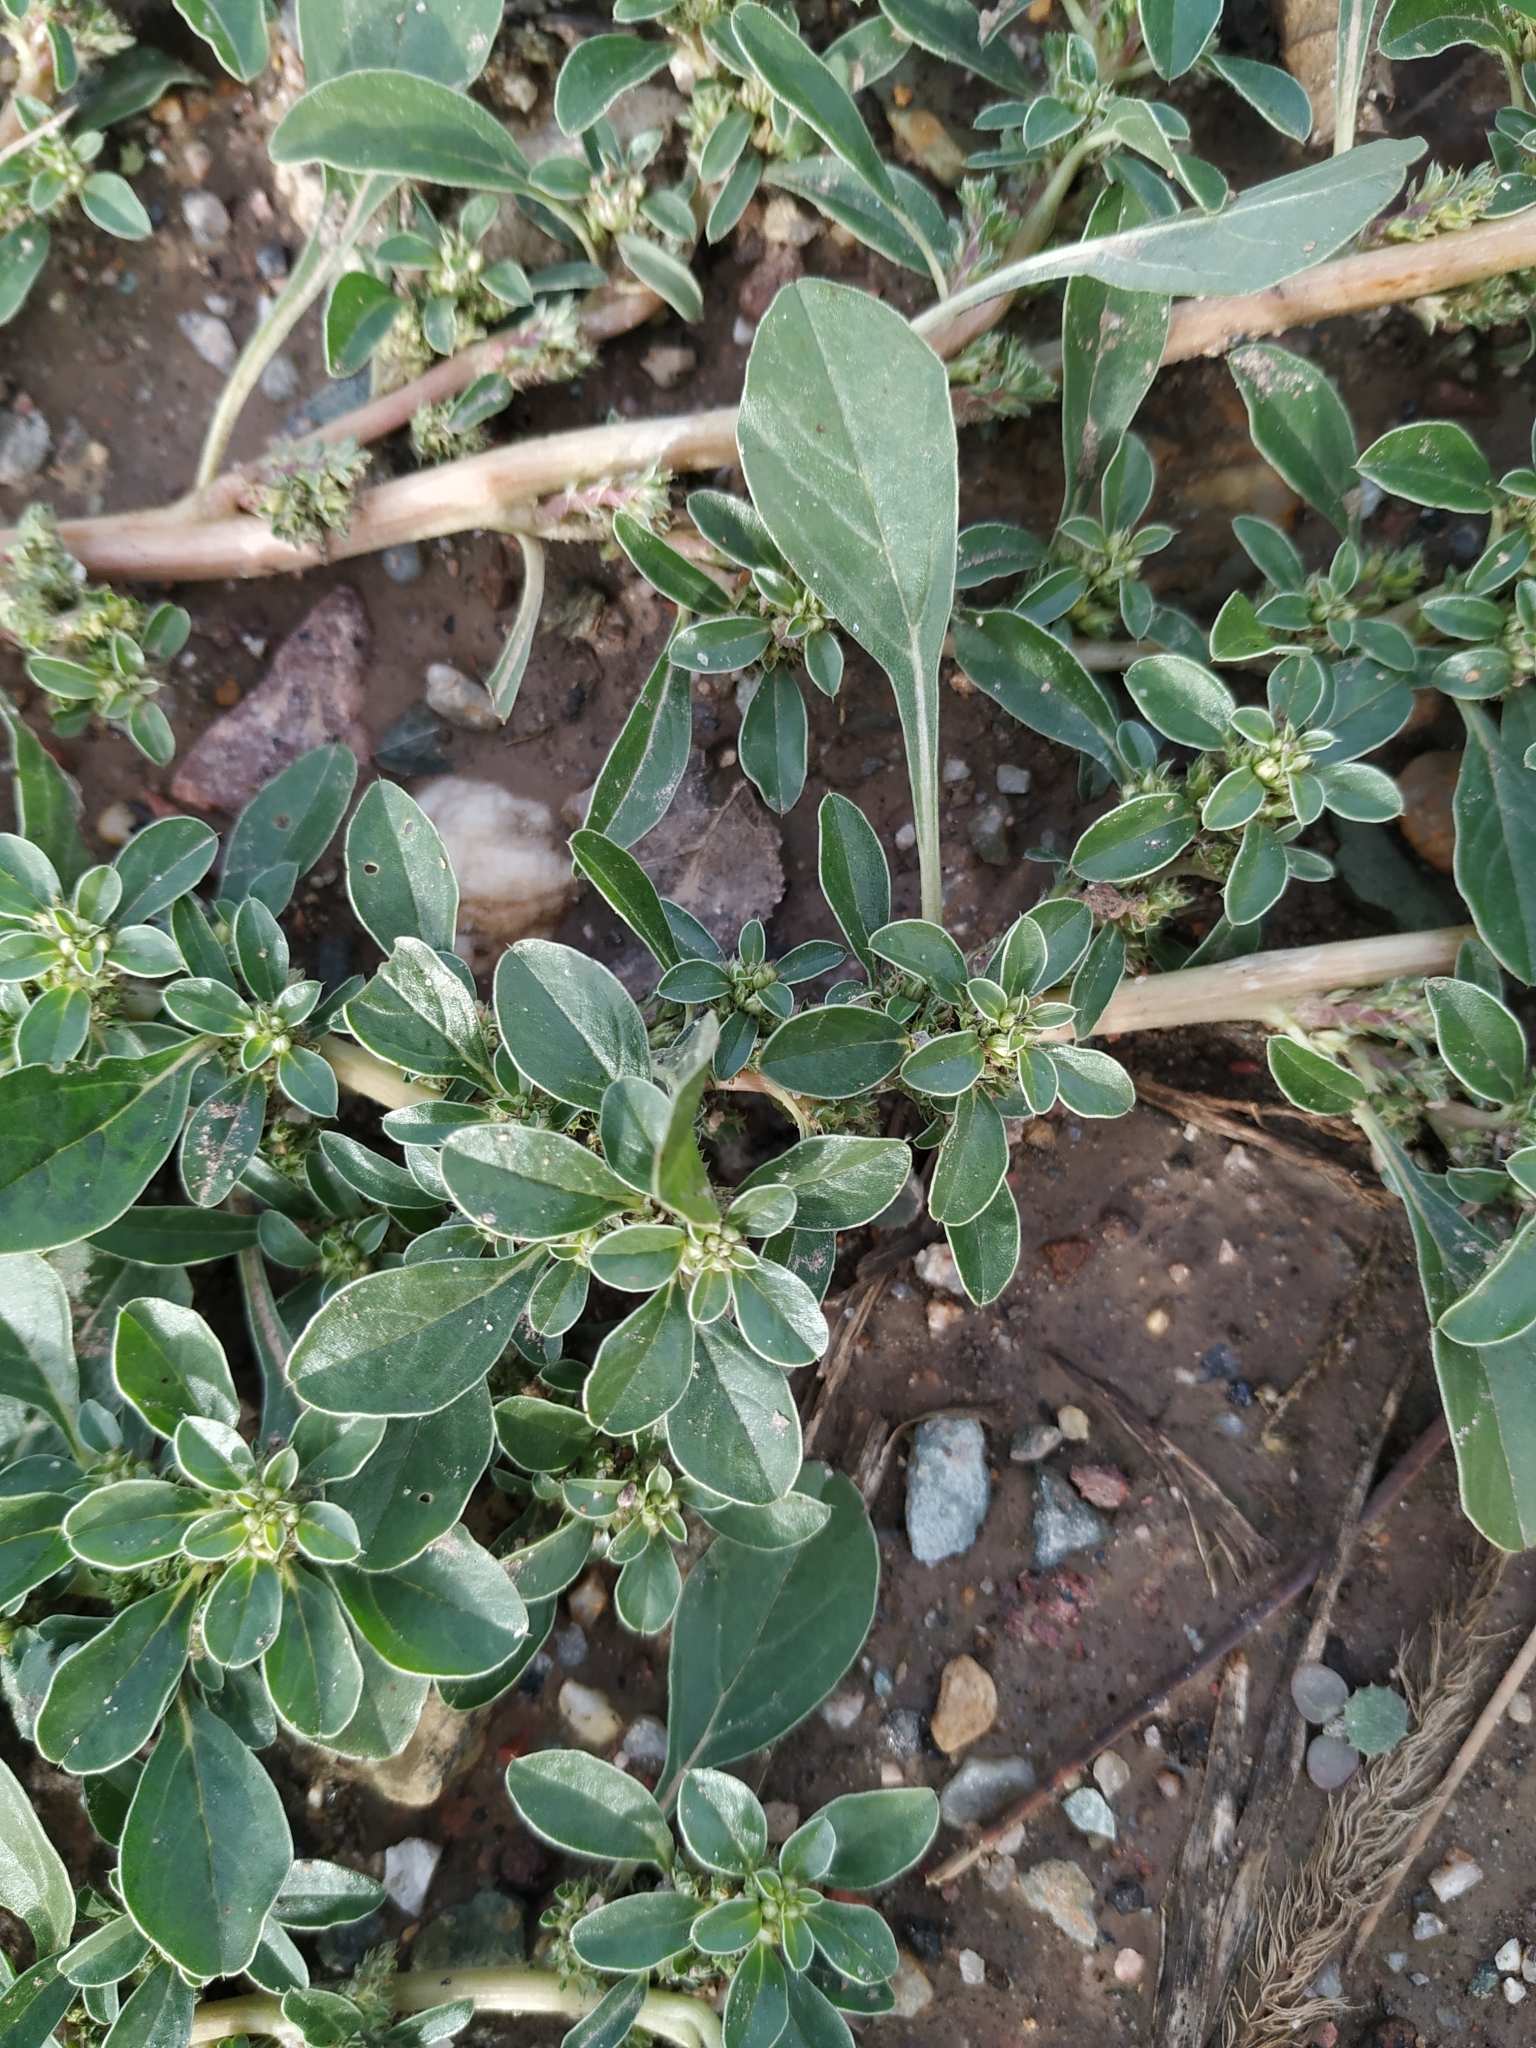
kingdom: Plantae
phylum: Tracheophyta
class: Magnoliopsida
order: Caryophyllales
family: Amaranthaceae
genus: Amaranthus
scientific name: Amaranthus blitoides
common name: Prostrate pigweed
